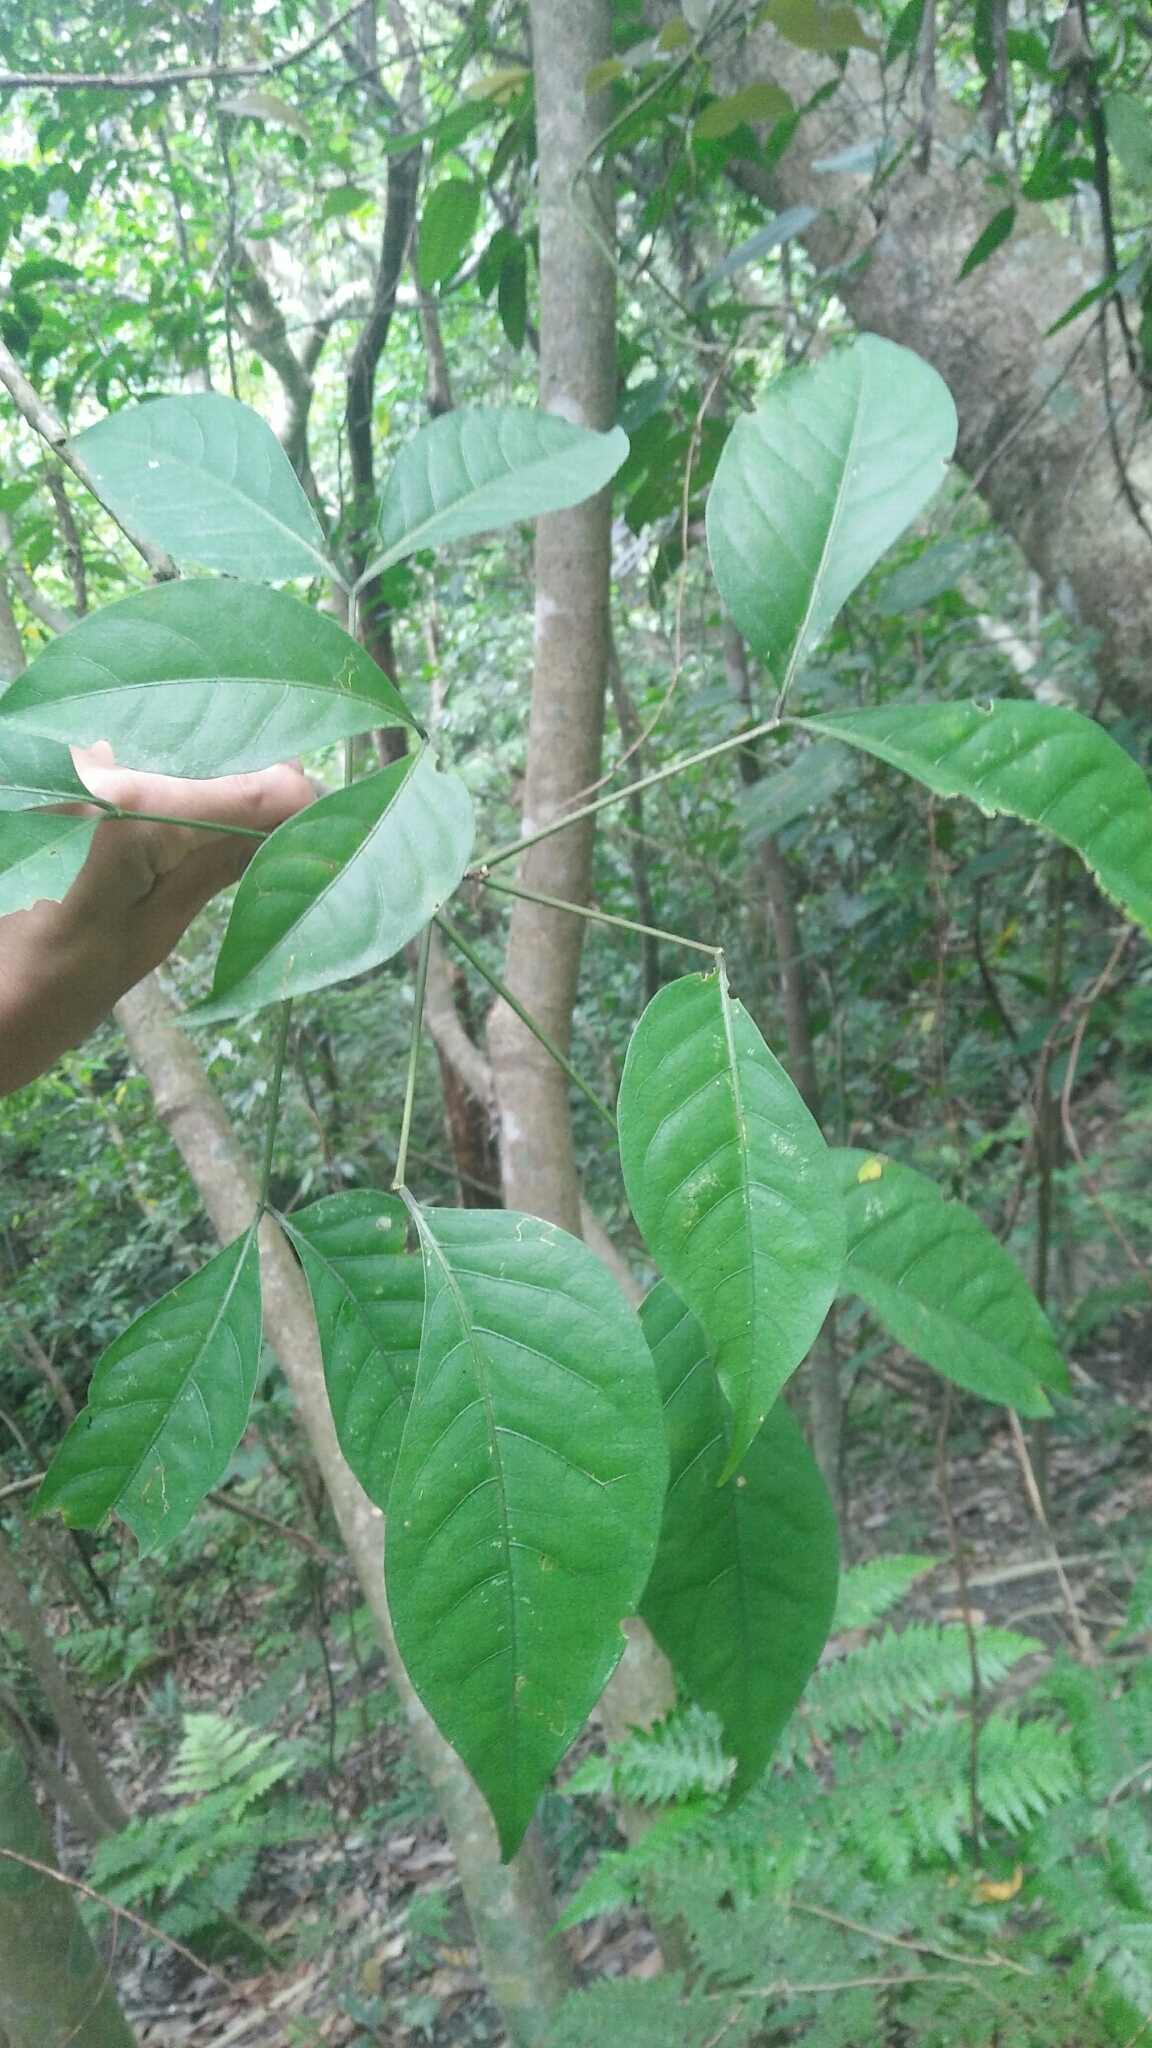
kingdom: Plantae
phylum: Tracheophyta
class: Magnoliopsida
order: Brassicales
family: Capparaceae
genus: Crateva
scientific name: Crateva formosensis
